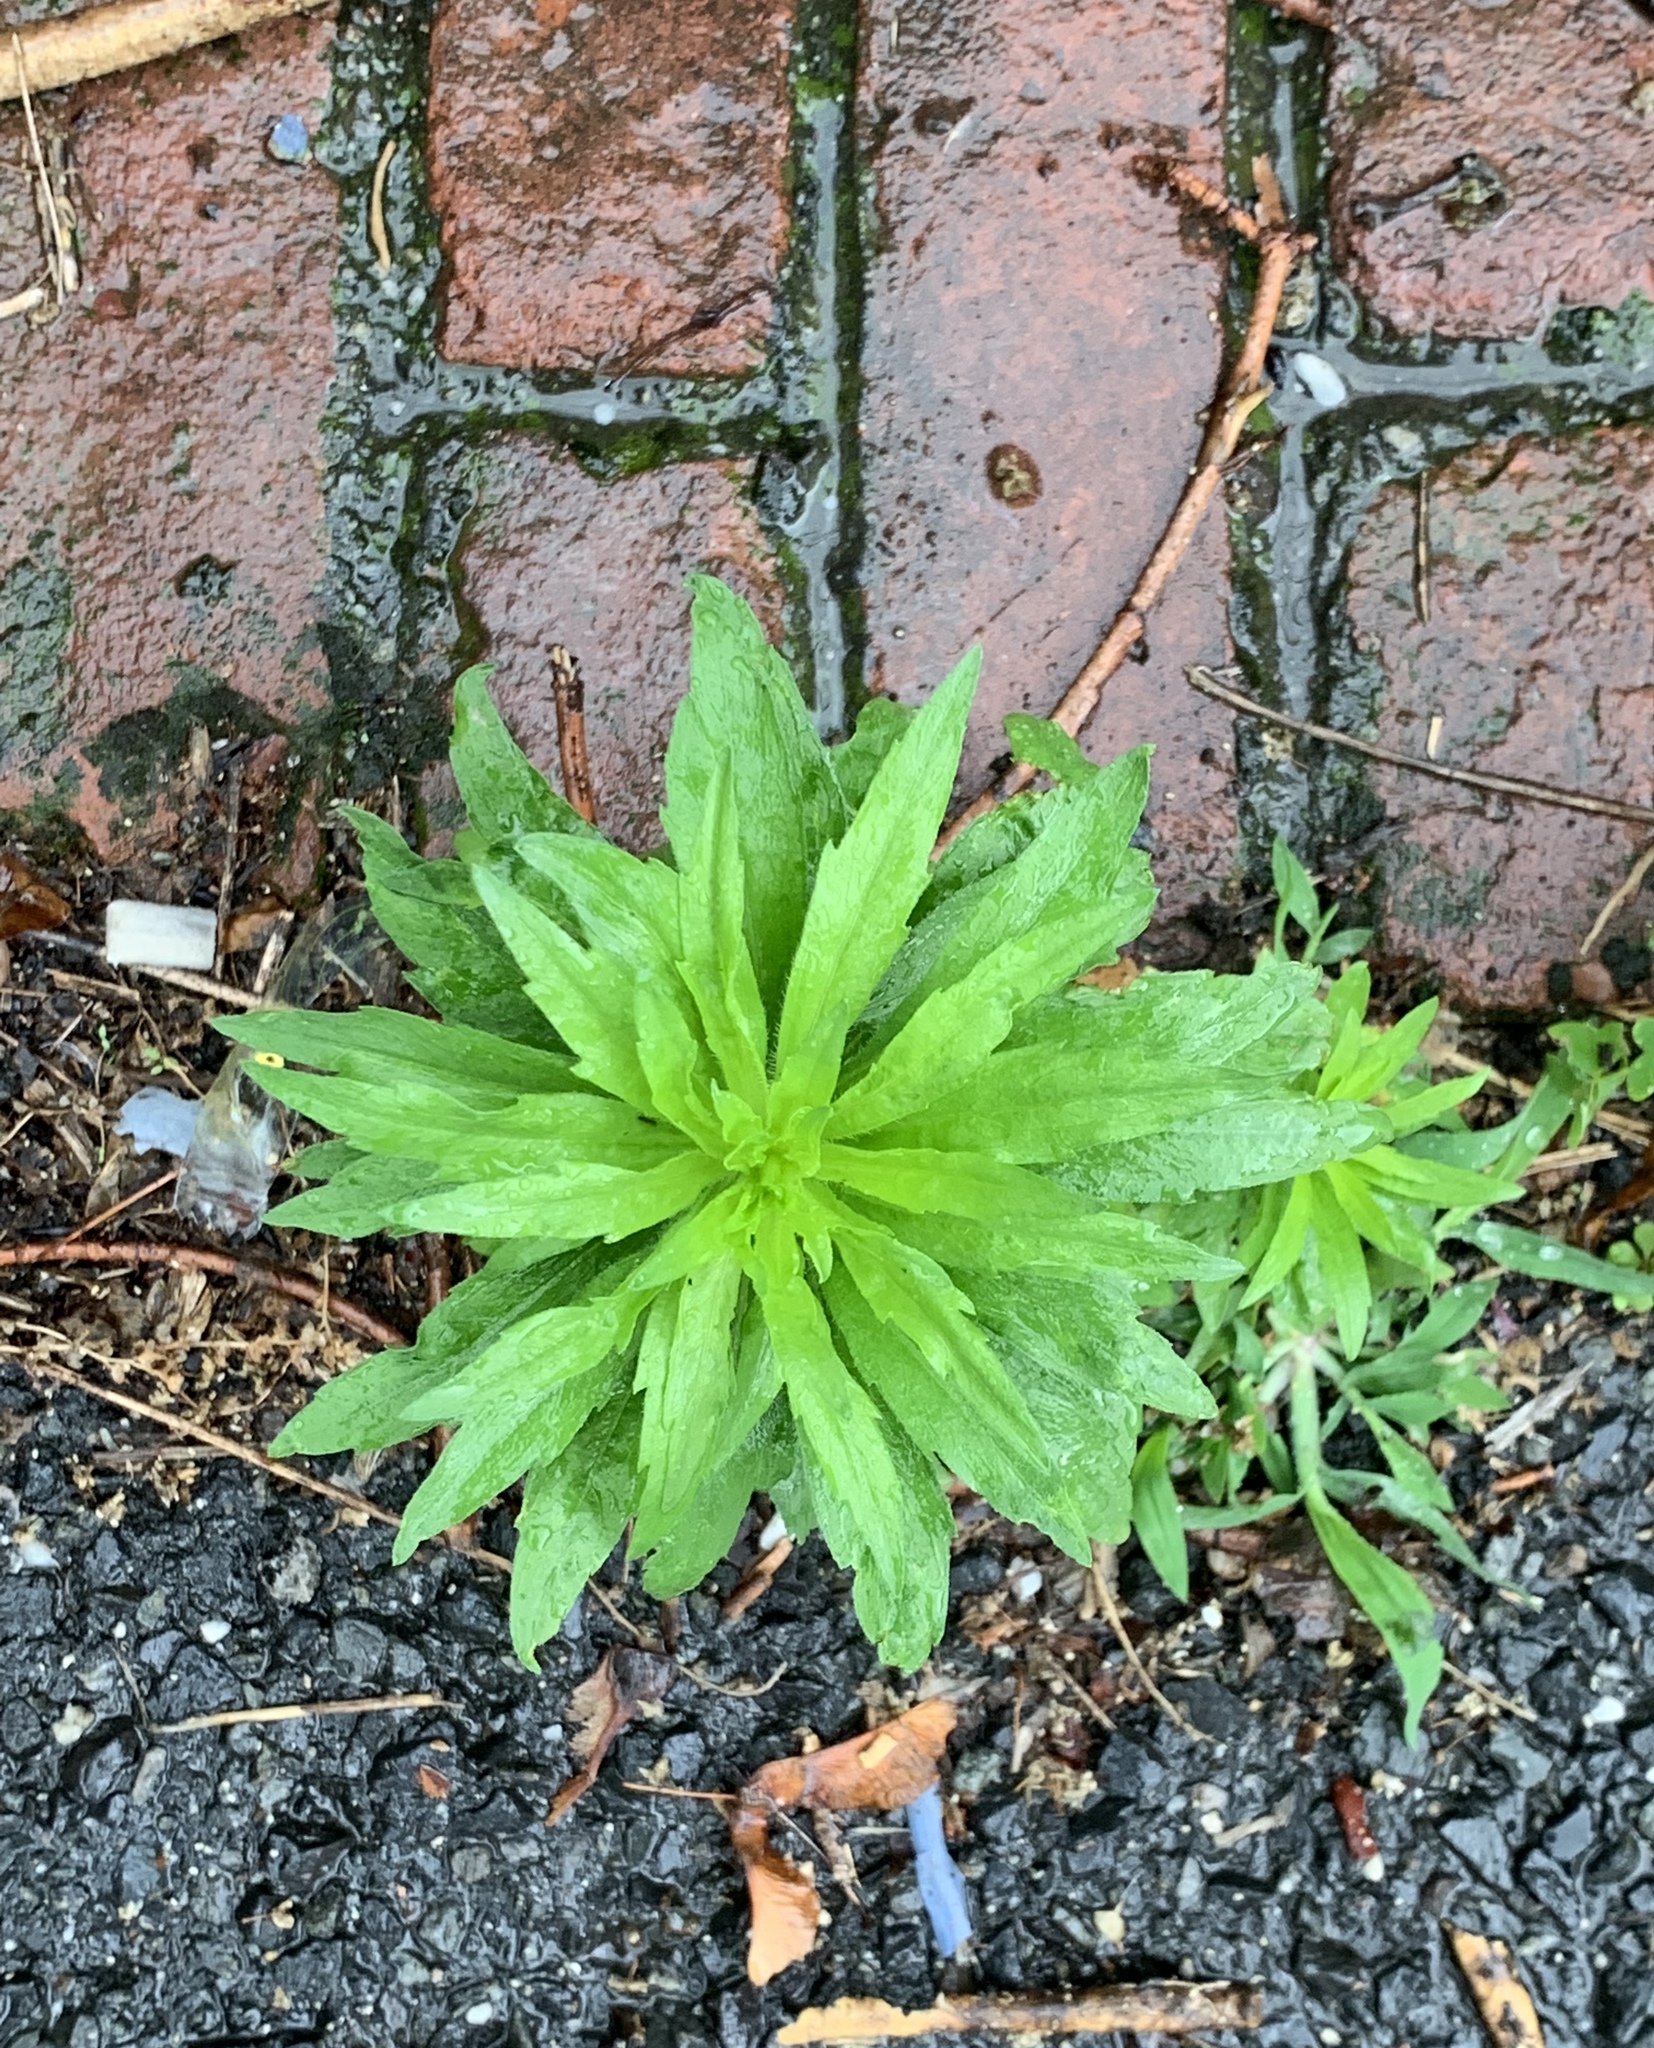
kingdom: Plantae
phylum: Tracheophyta
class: Magnoliopsida
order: Asterales
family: Asteraceae
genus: Erigeron
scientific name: Erigeron canadensis
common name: Canadian fleabane
